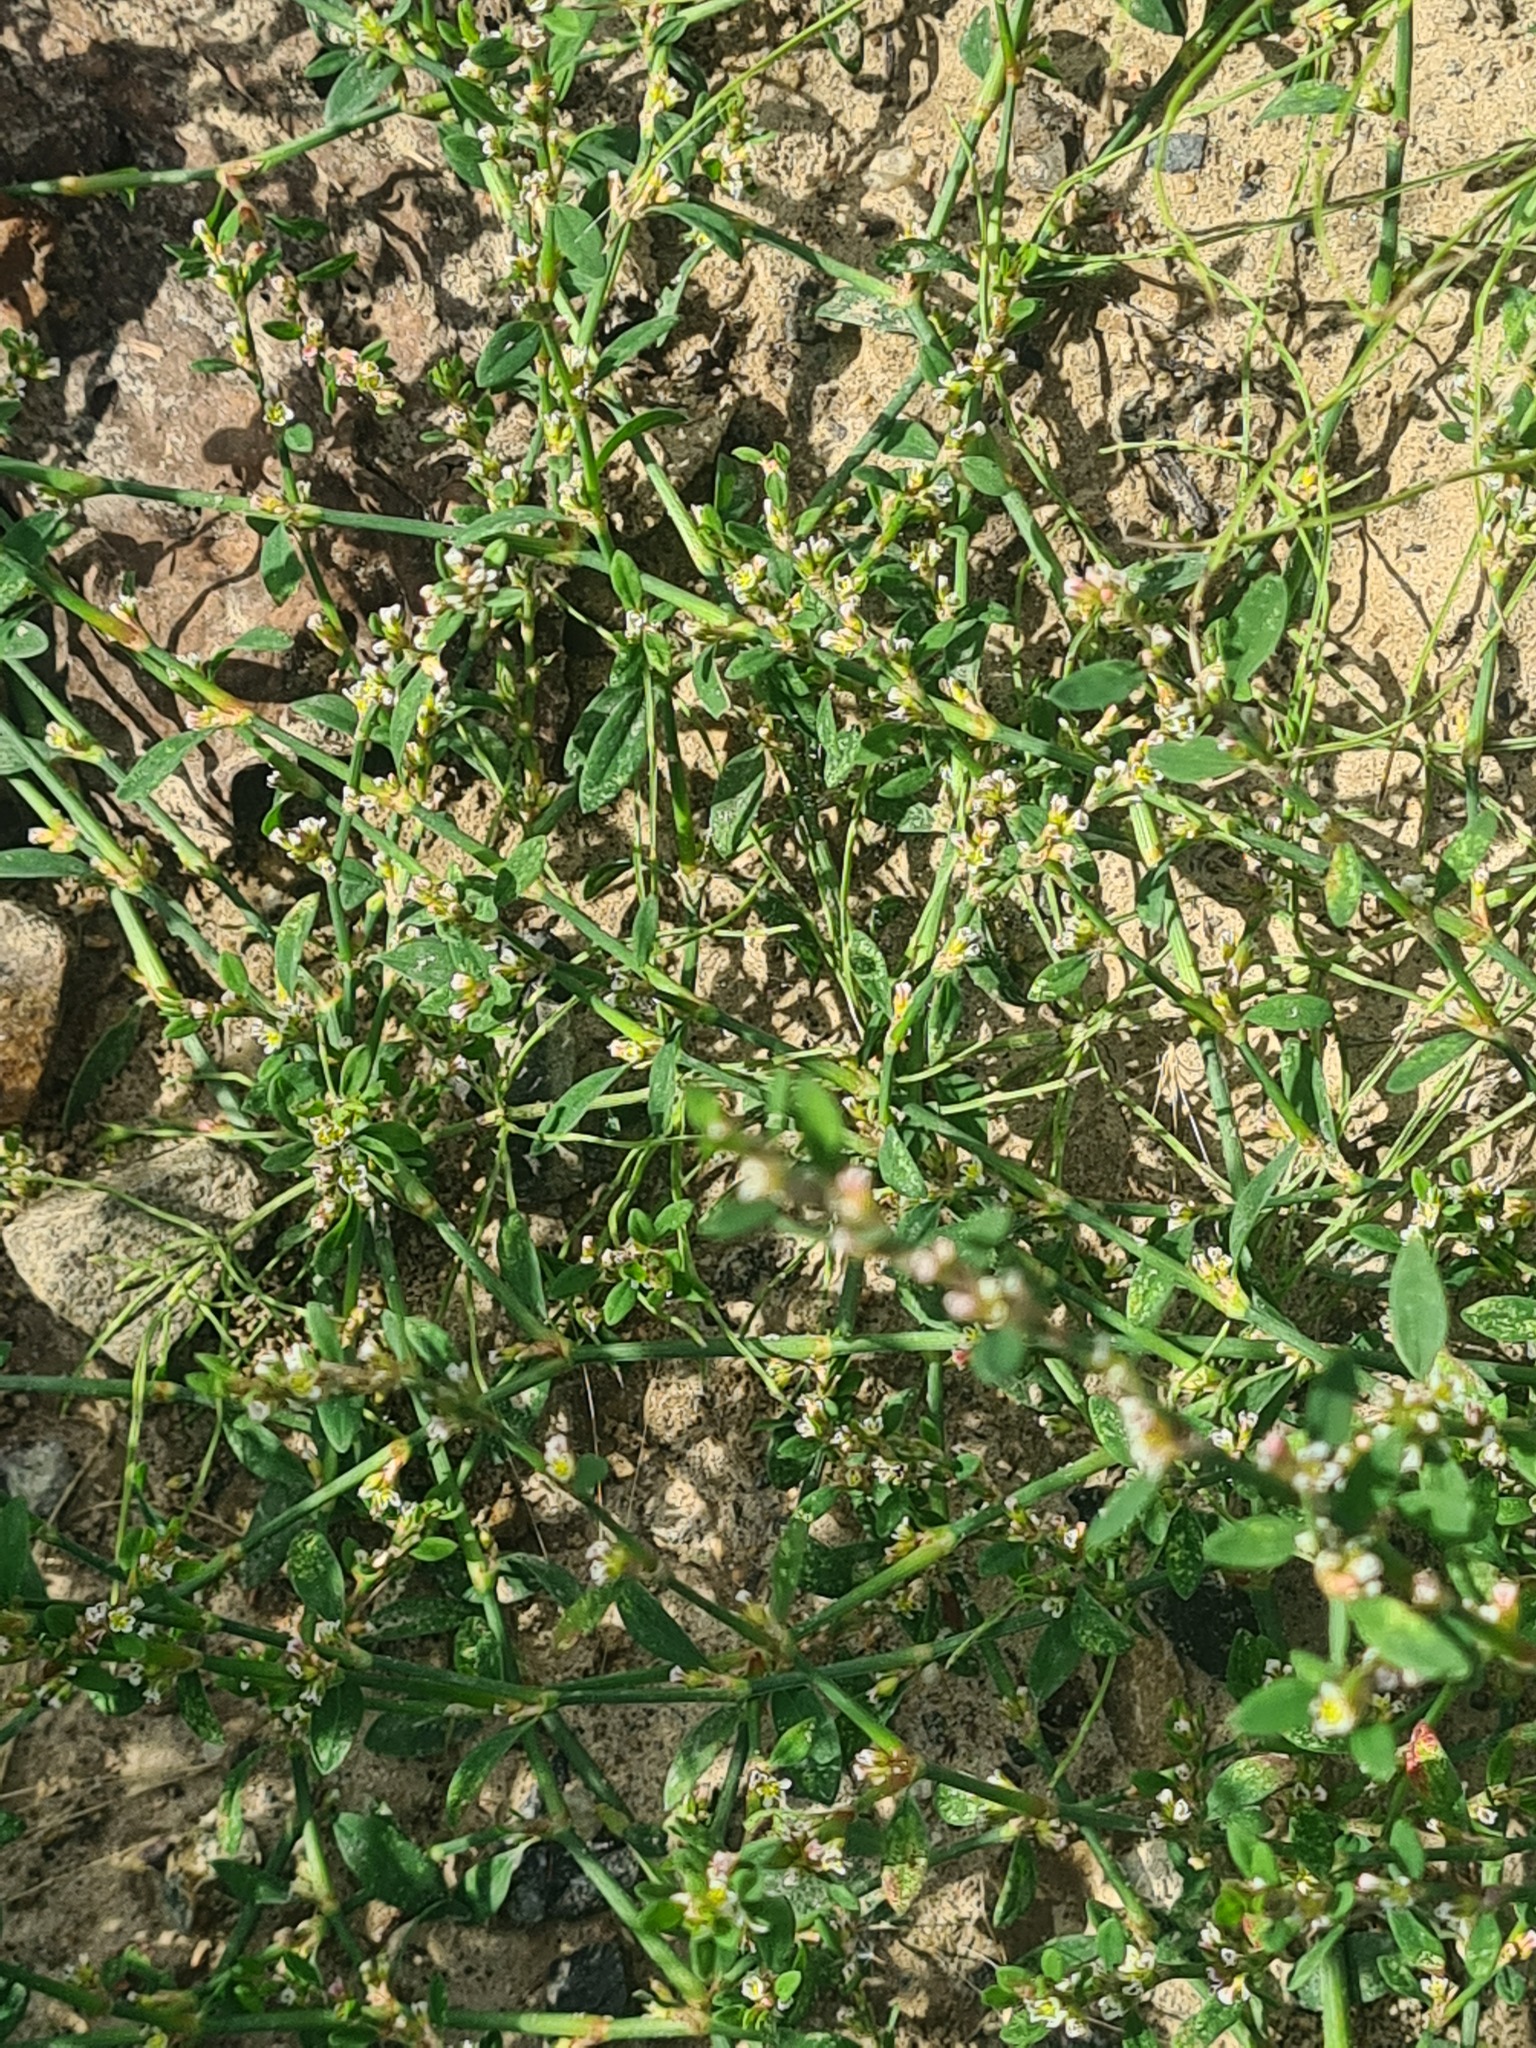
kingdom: Plantae
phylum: Tracheophyta
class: Magnoliopsida
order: Caryophyllales
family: Polygonaceae
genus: Polygonum
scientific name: Polygonum
